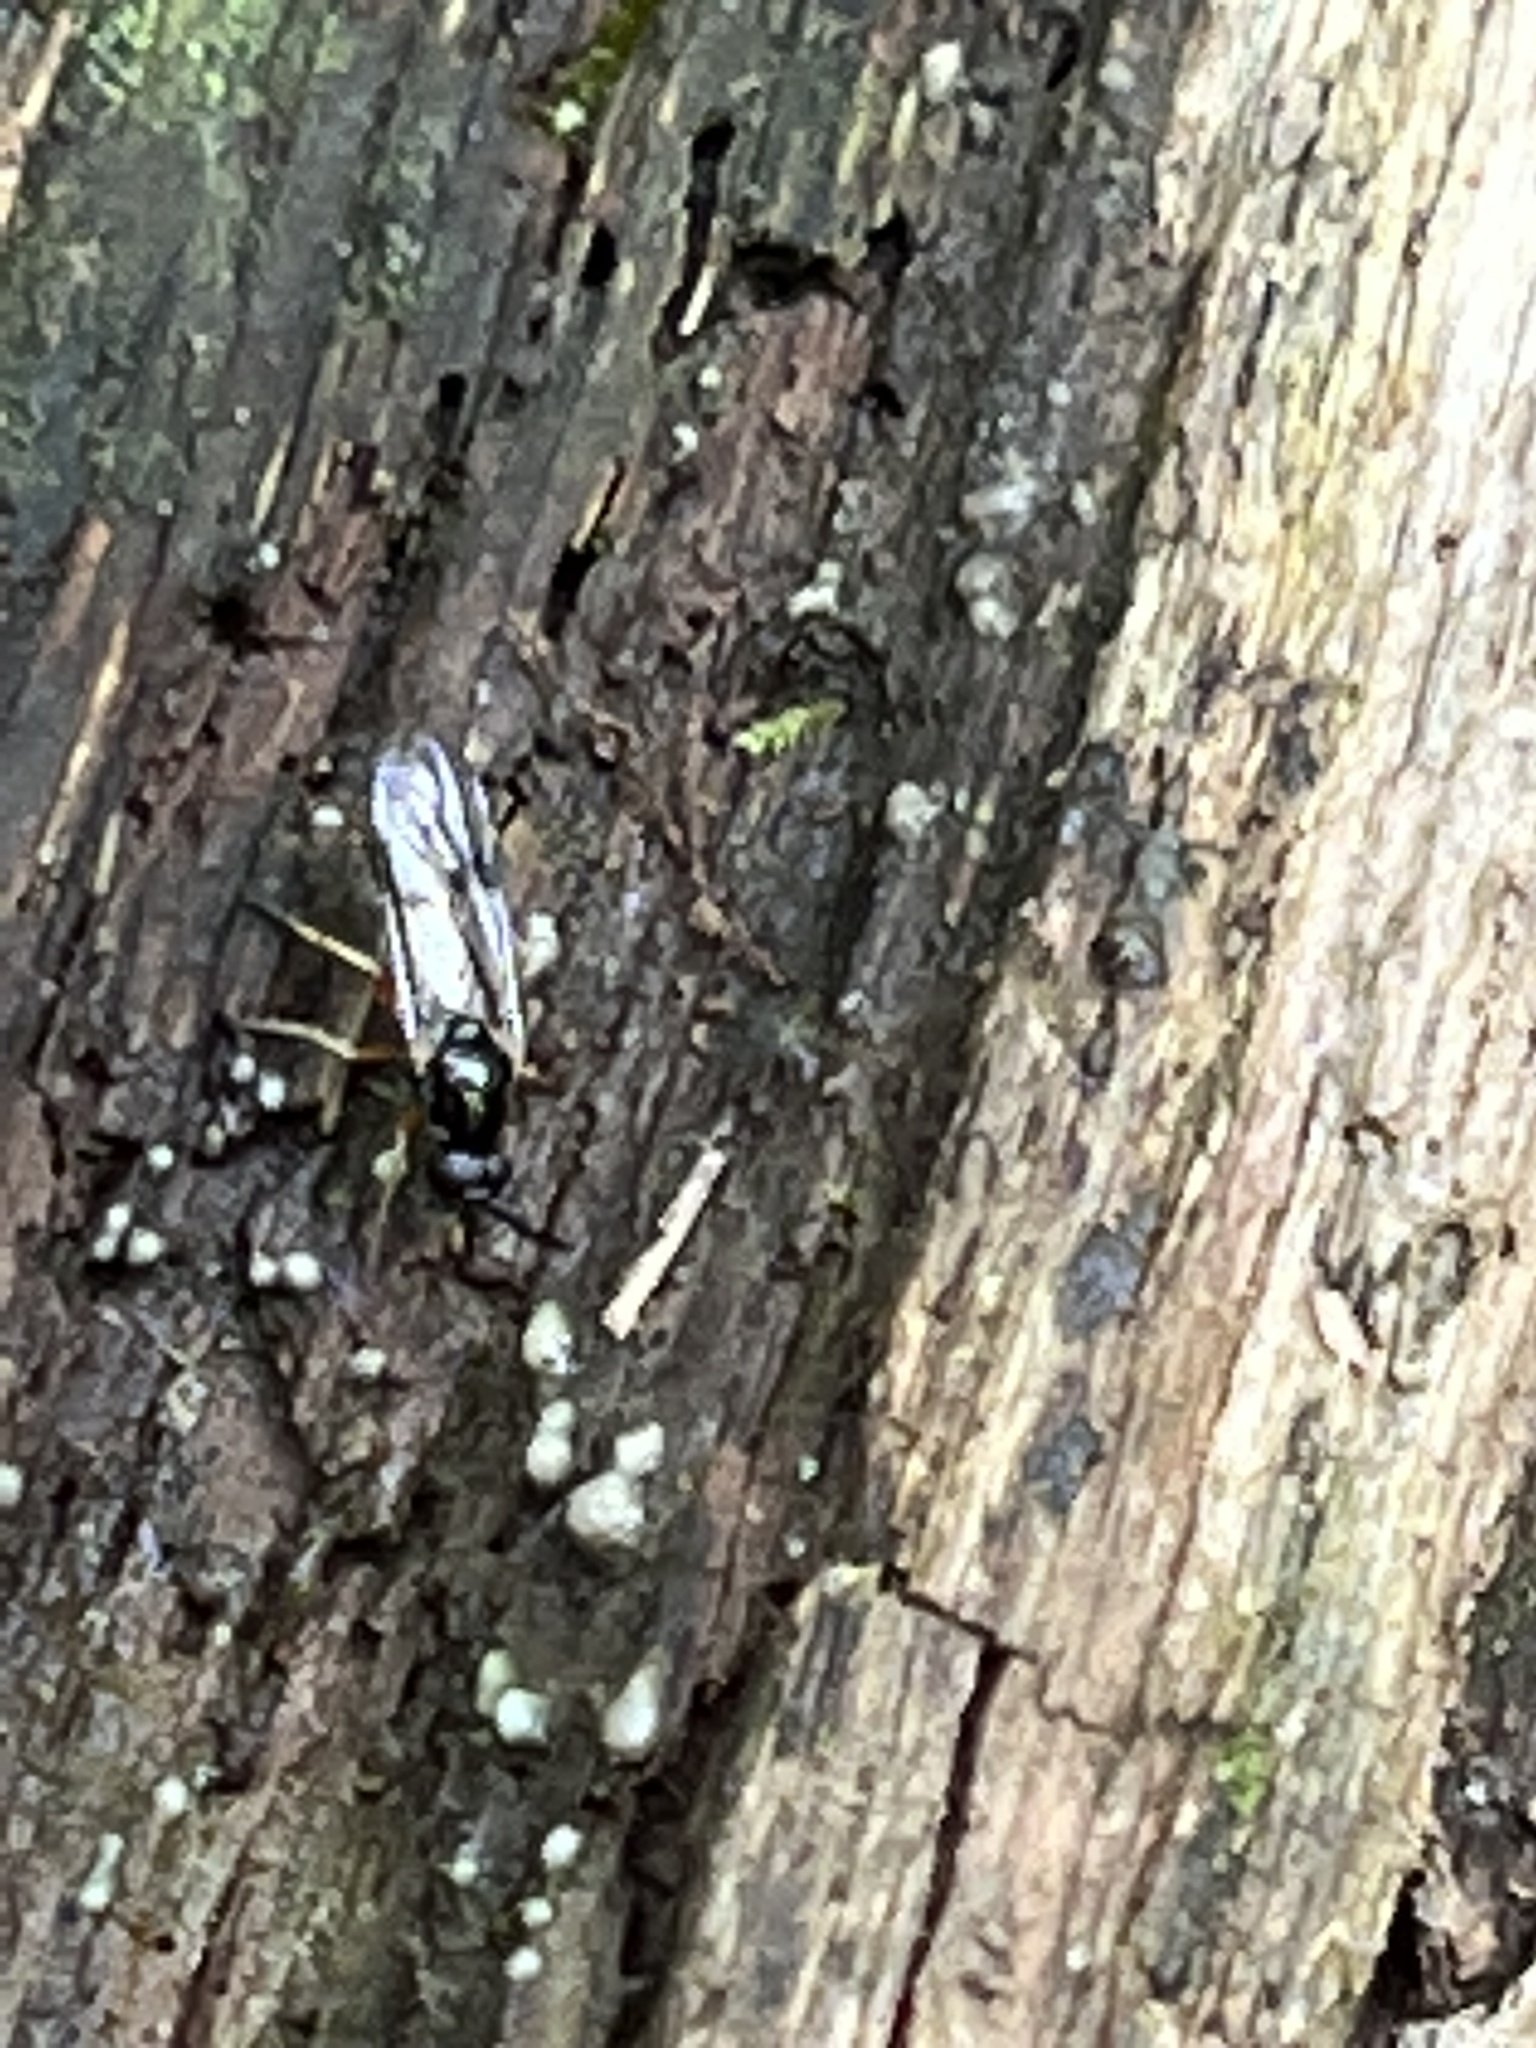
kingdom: Animalia
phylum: Arthropoda
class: Insecta
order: Diptera
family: Xylophagidae
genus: Rachicerus
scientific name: Rachicerus nitidus
